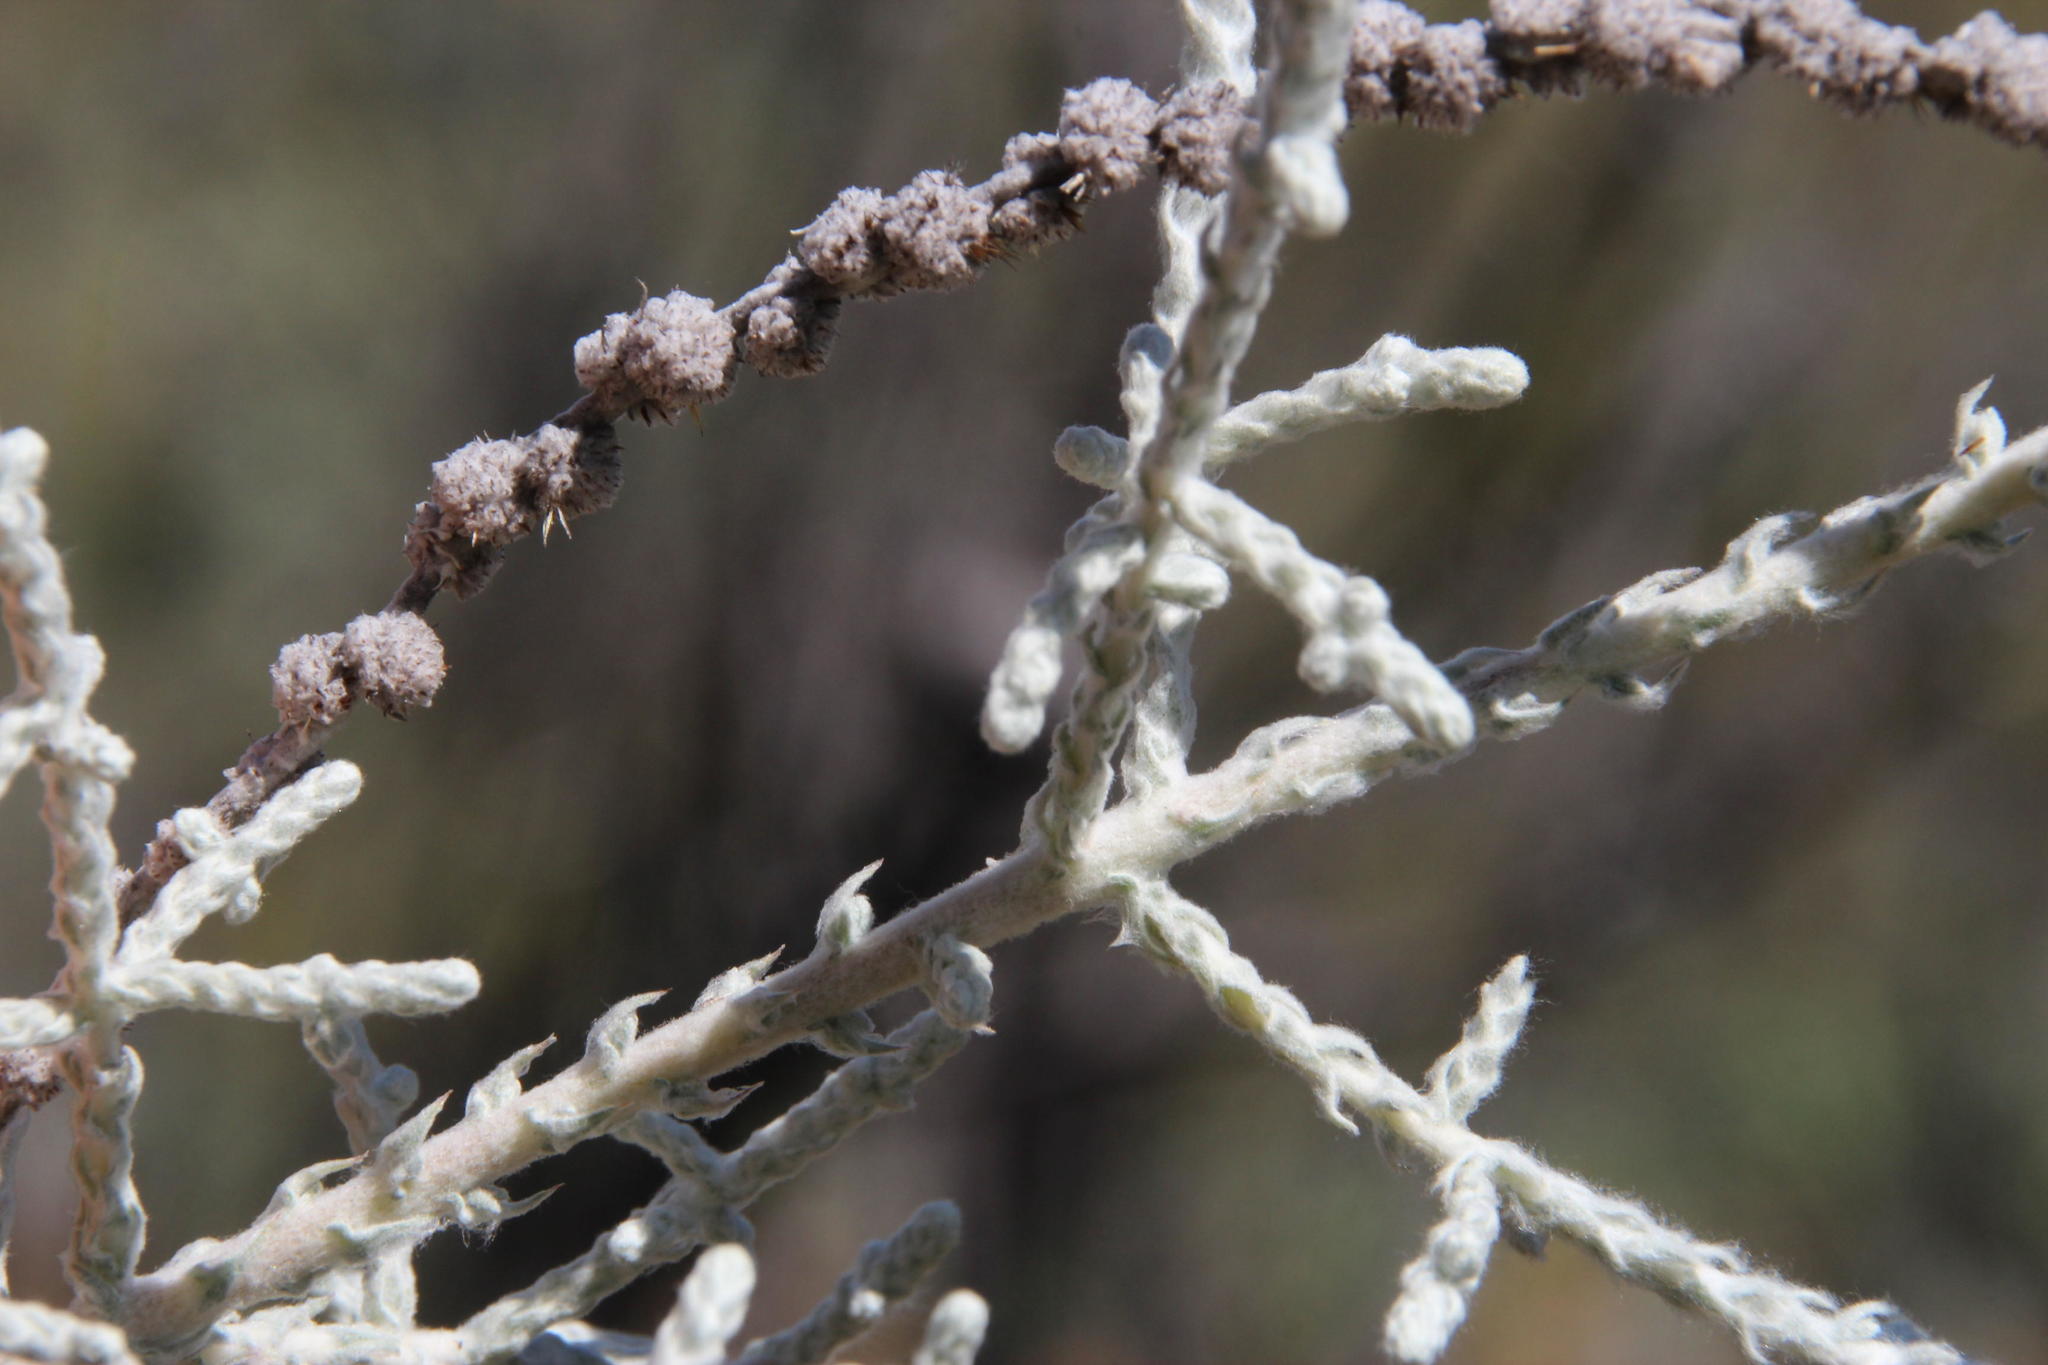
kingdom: Plantae
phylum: Tracheophyta
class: Magnoliopsida
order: Asterales
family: Asteraceae
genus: Seriphium
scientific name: Seriphium plumosum
